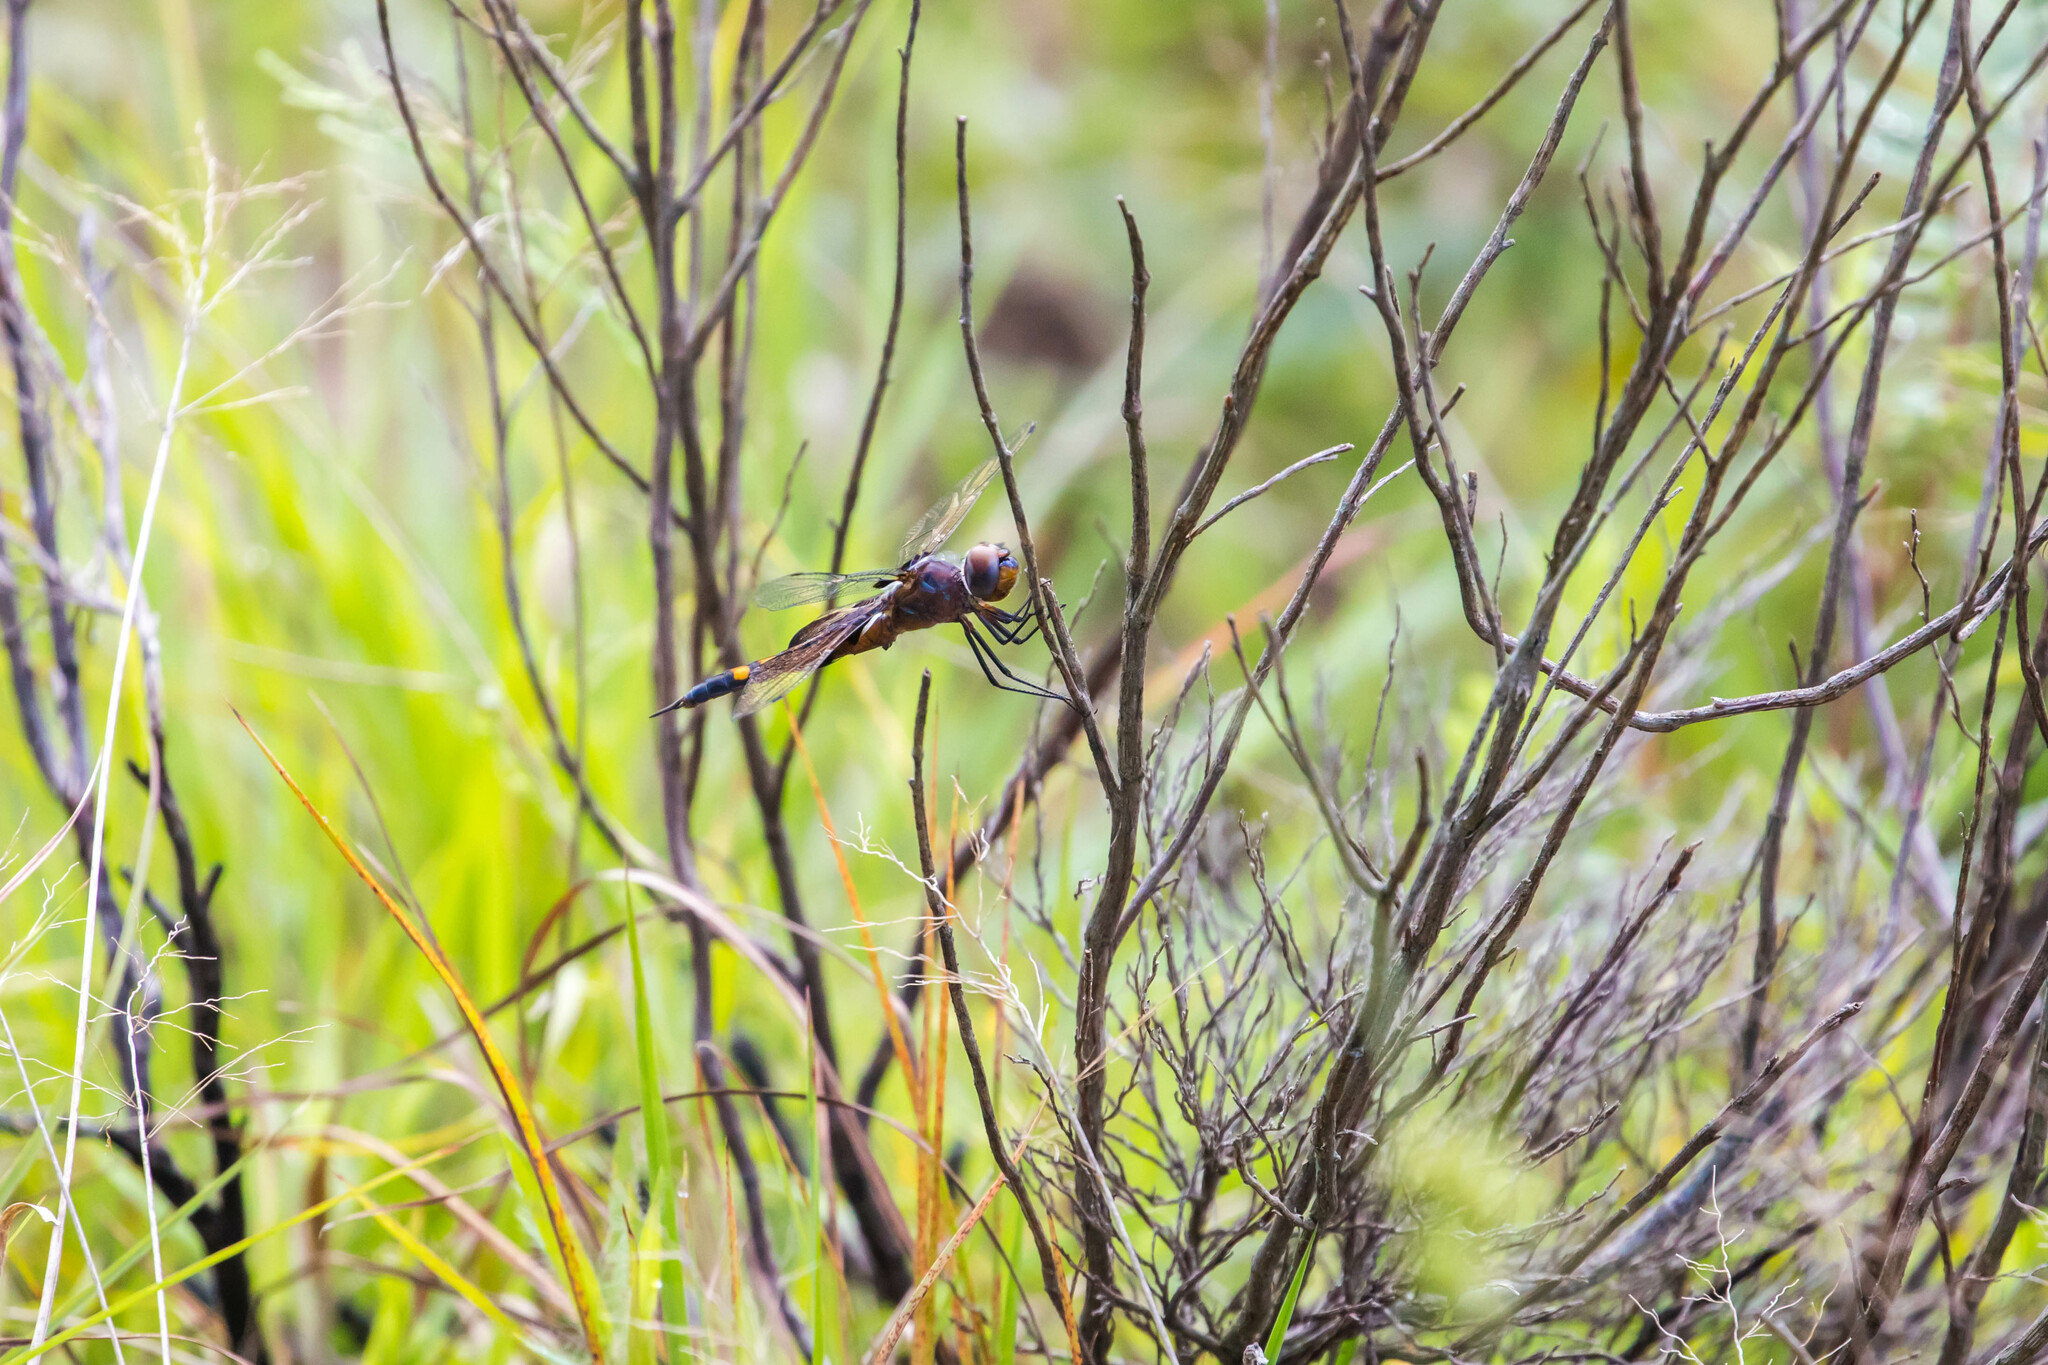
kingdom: Animalia
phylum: Arthropoda
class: Insecta
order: Odonata
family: Libellulidae
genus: Tramea
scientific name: Tramea lacerata
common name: Black saddlebags
